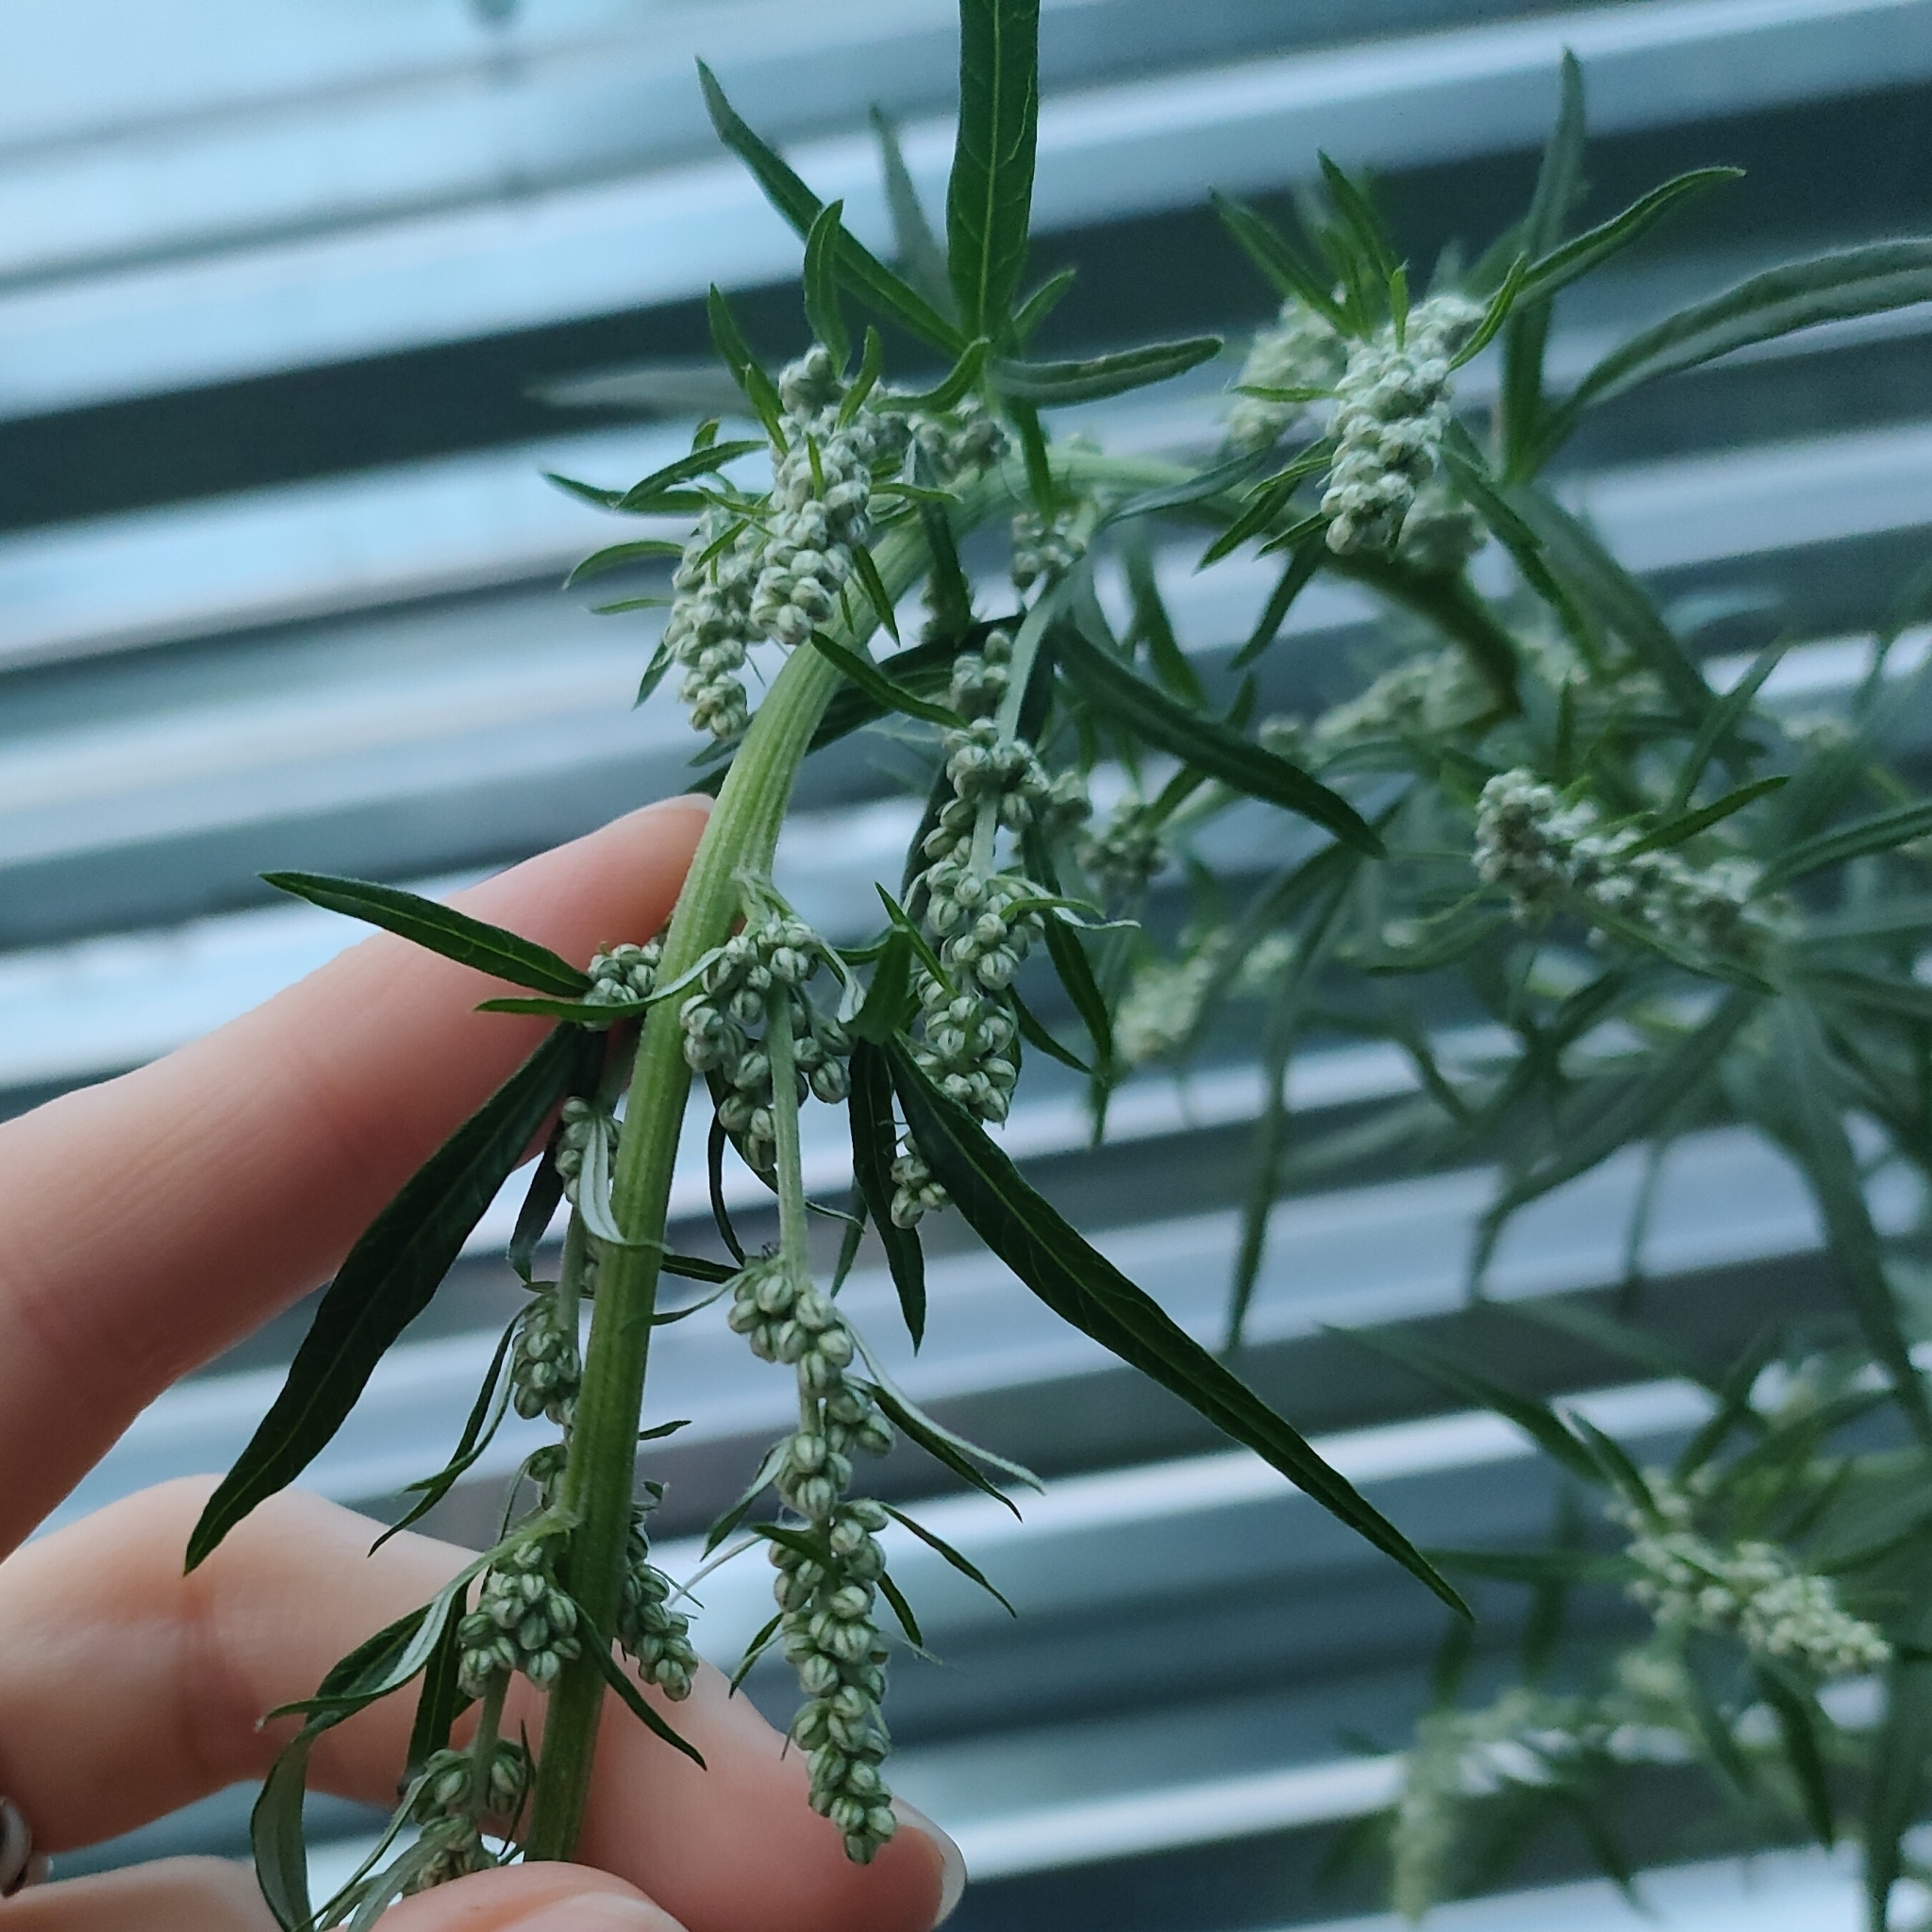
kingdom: Plantae
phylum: Tracheophyta
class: Magnoliopsida
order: Asterales
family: Asteraceae
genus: Artemisia
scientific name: Artemisia vulgaris
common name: Mugwort
